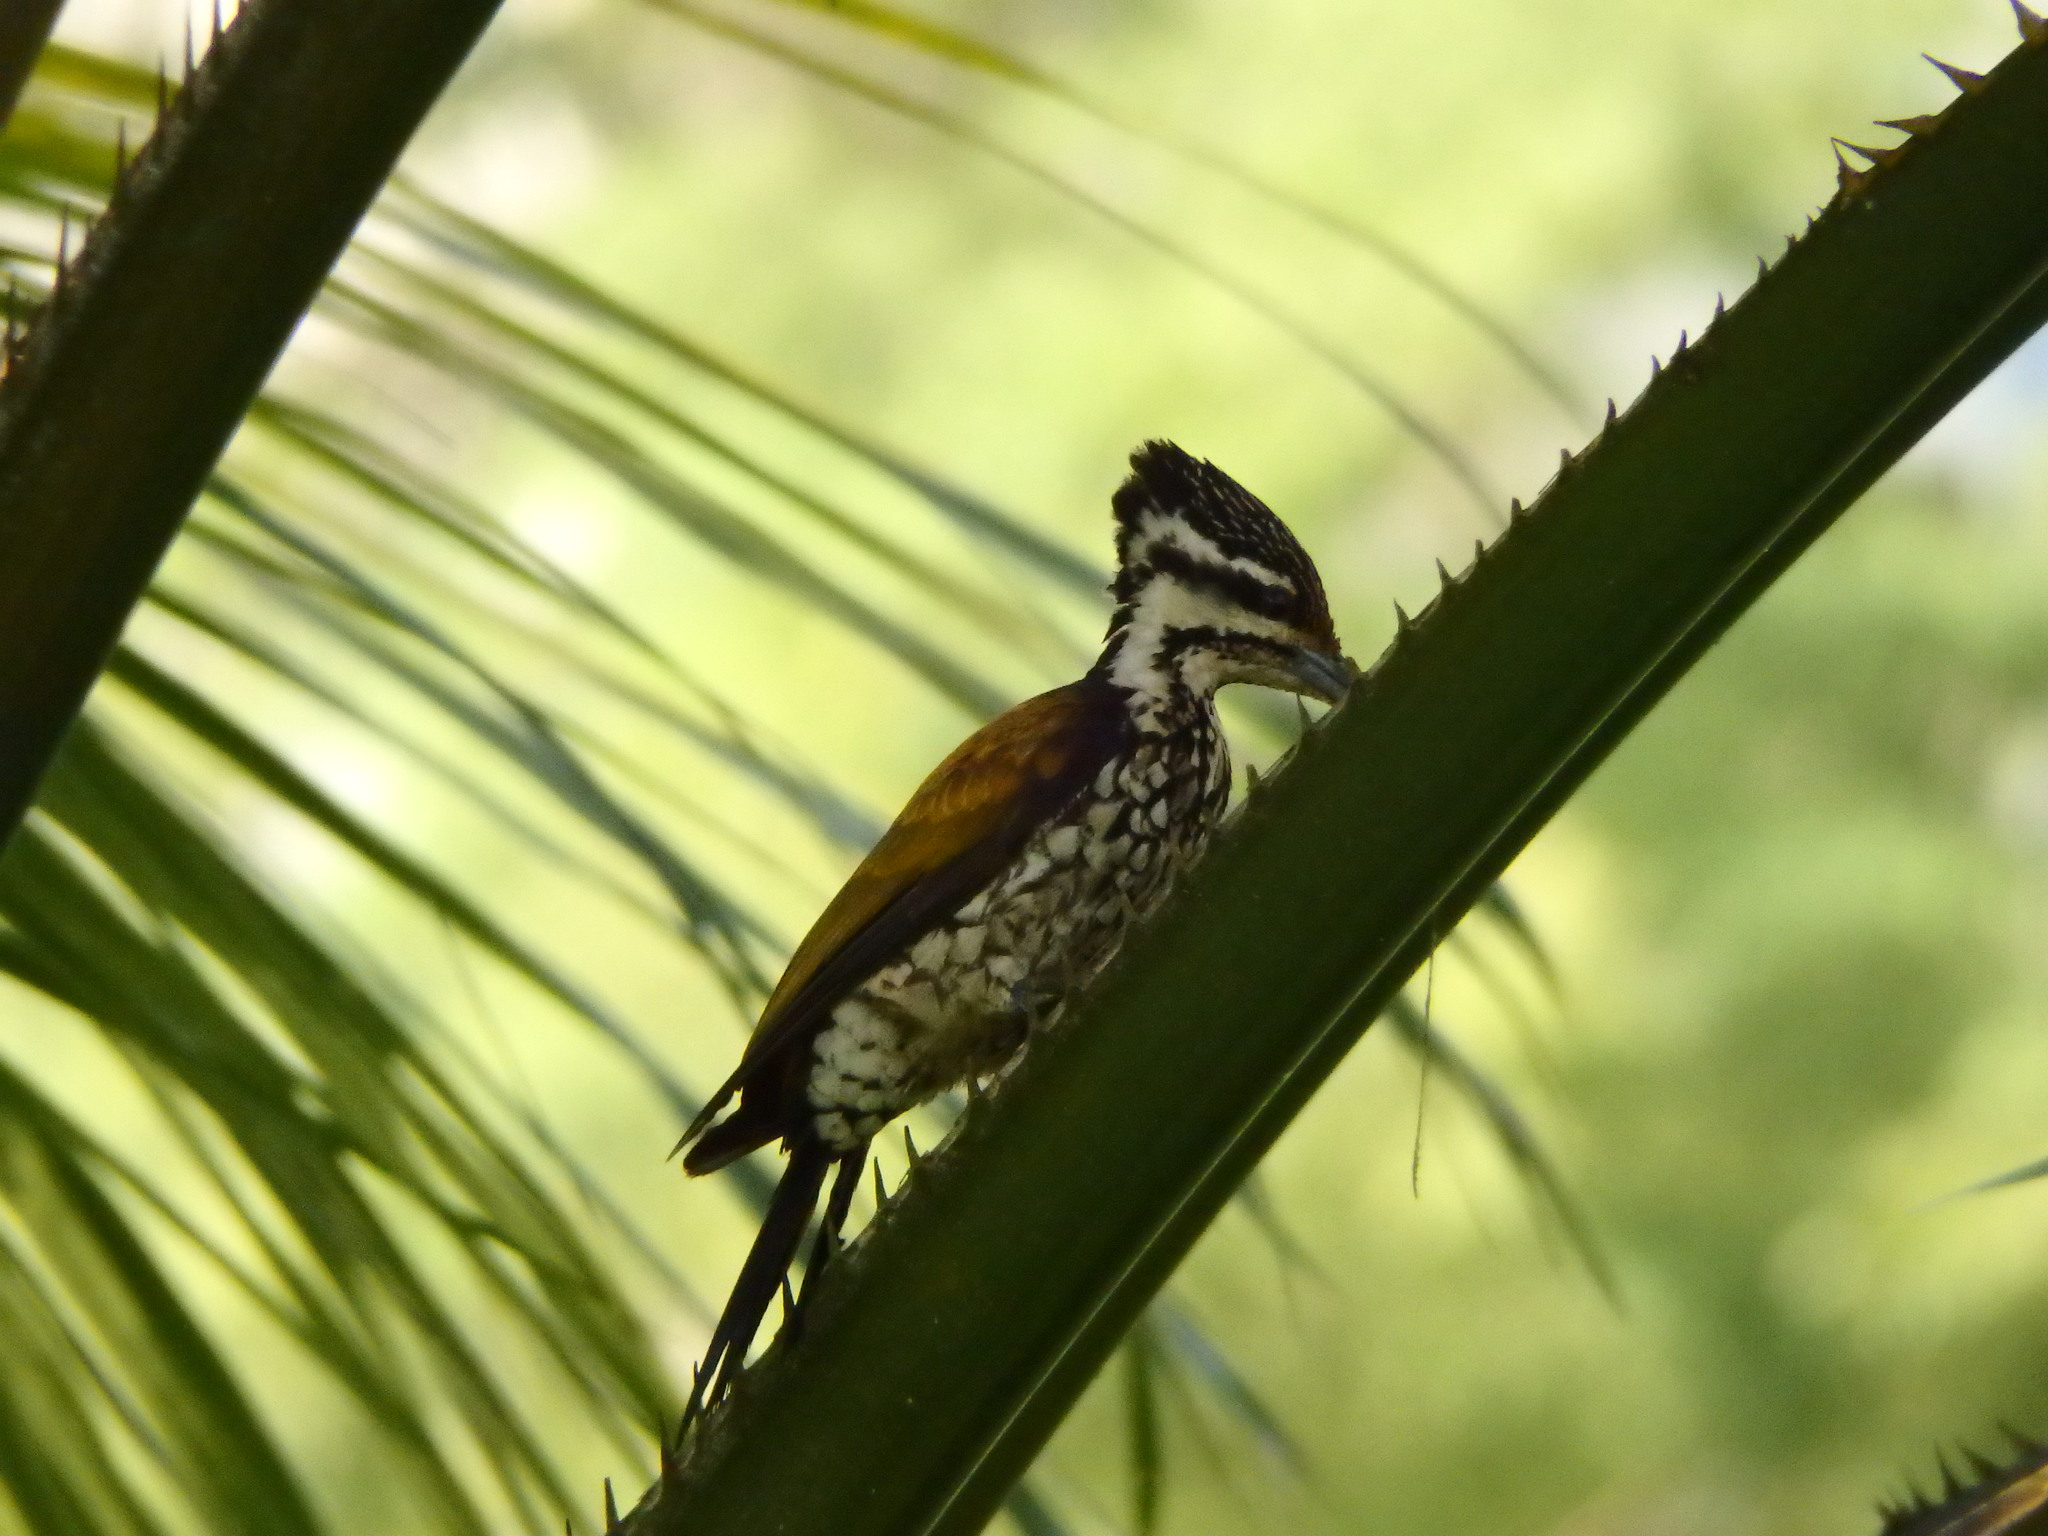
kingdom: Animalia
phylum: Chordata
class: Aves
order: Piciformes
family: Picidae
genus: Dinopium
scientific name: Dinopium javanense
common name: Common flameback
